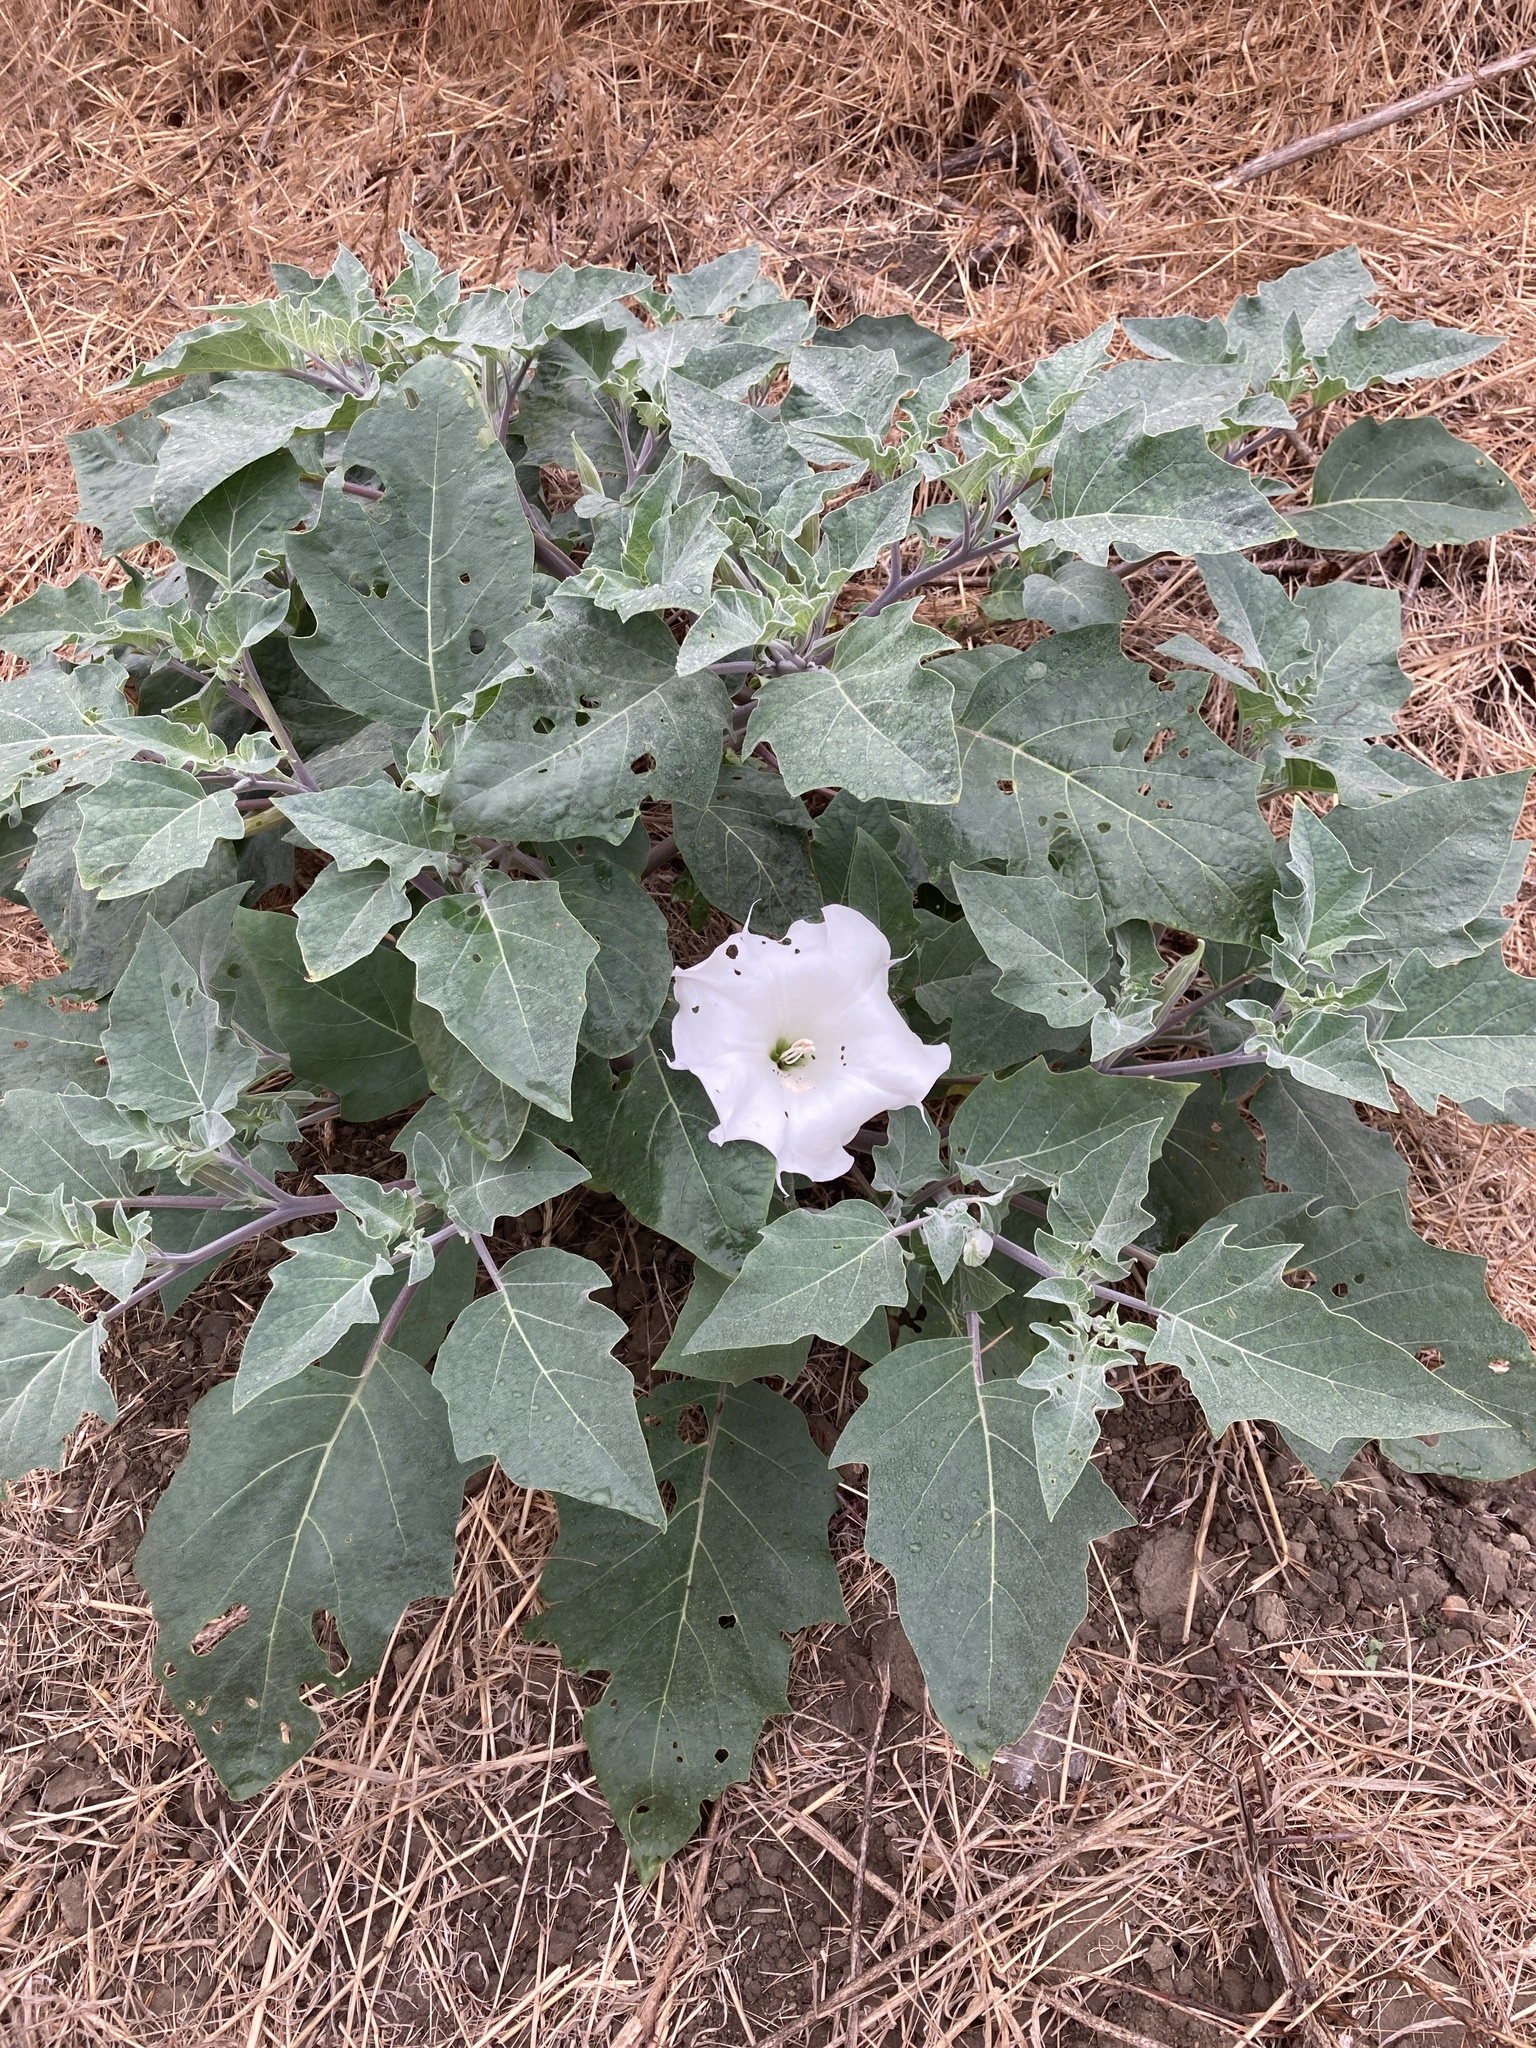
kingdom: Plantae
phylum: Tracheophyta
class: Magnoliopsida
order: Solanales
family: Solanaceae
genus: Datura
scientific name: Datura wrightii
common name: Sacred thorn-apple
